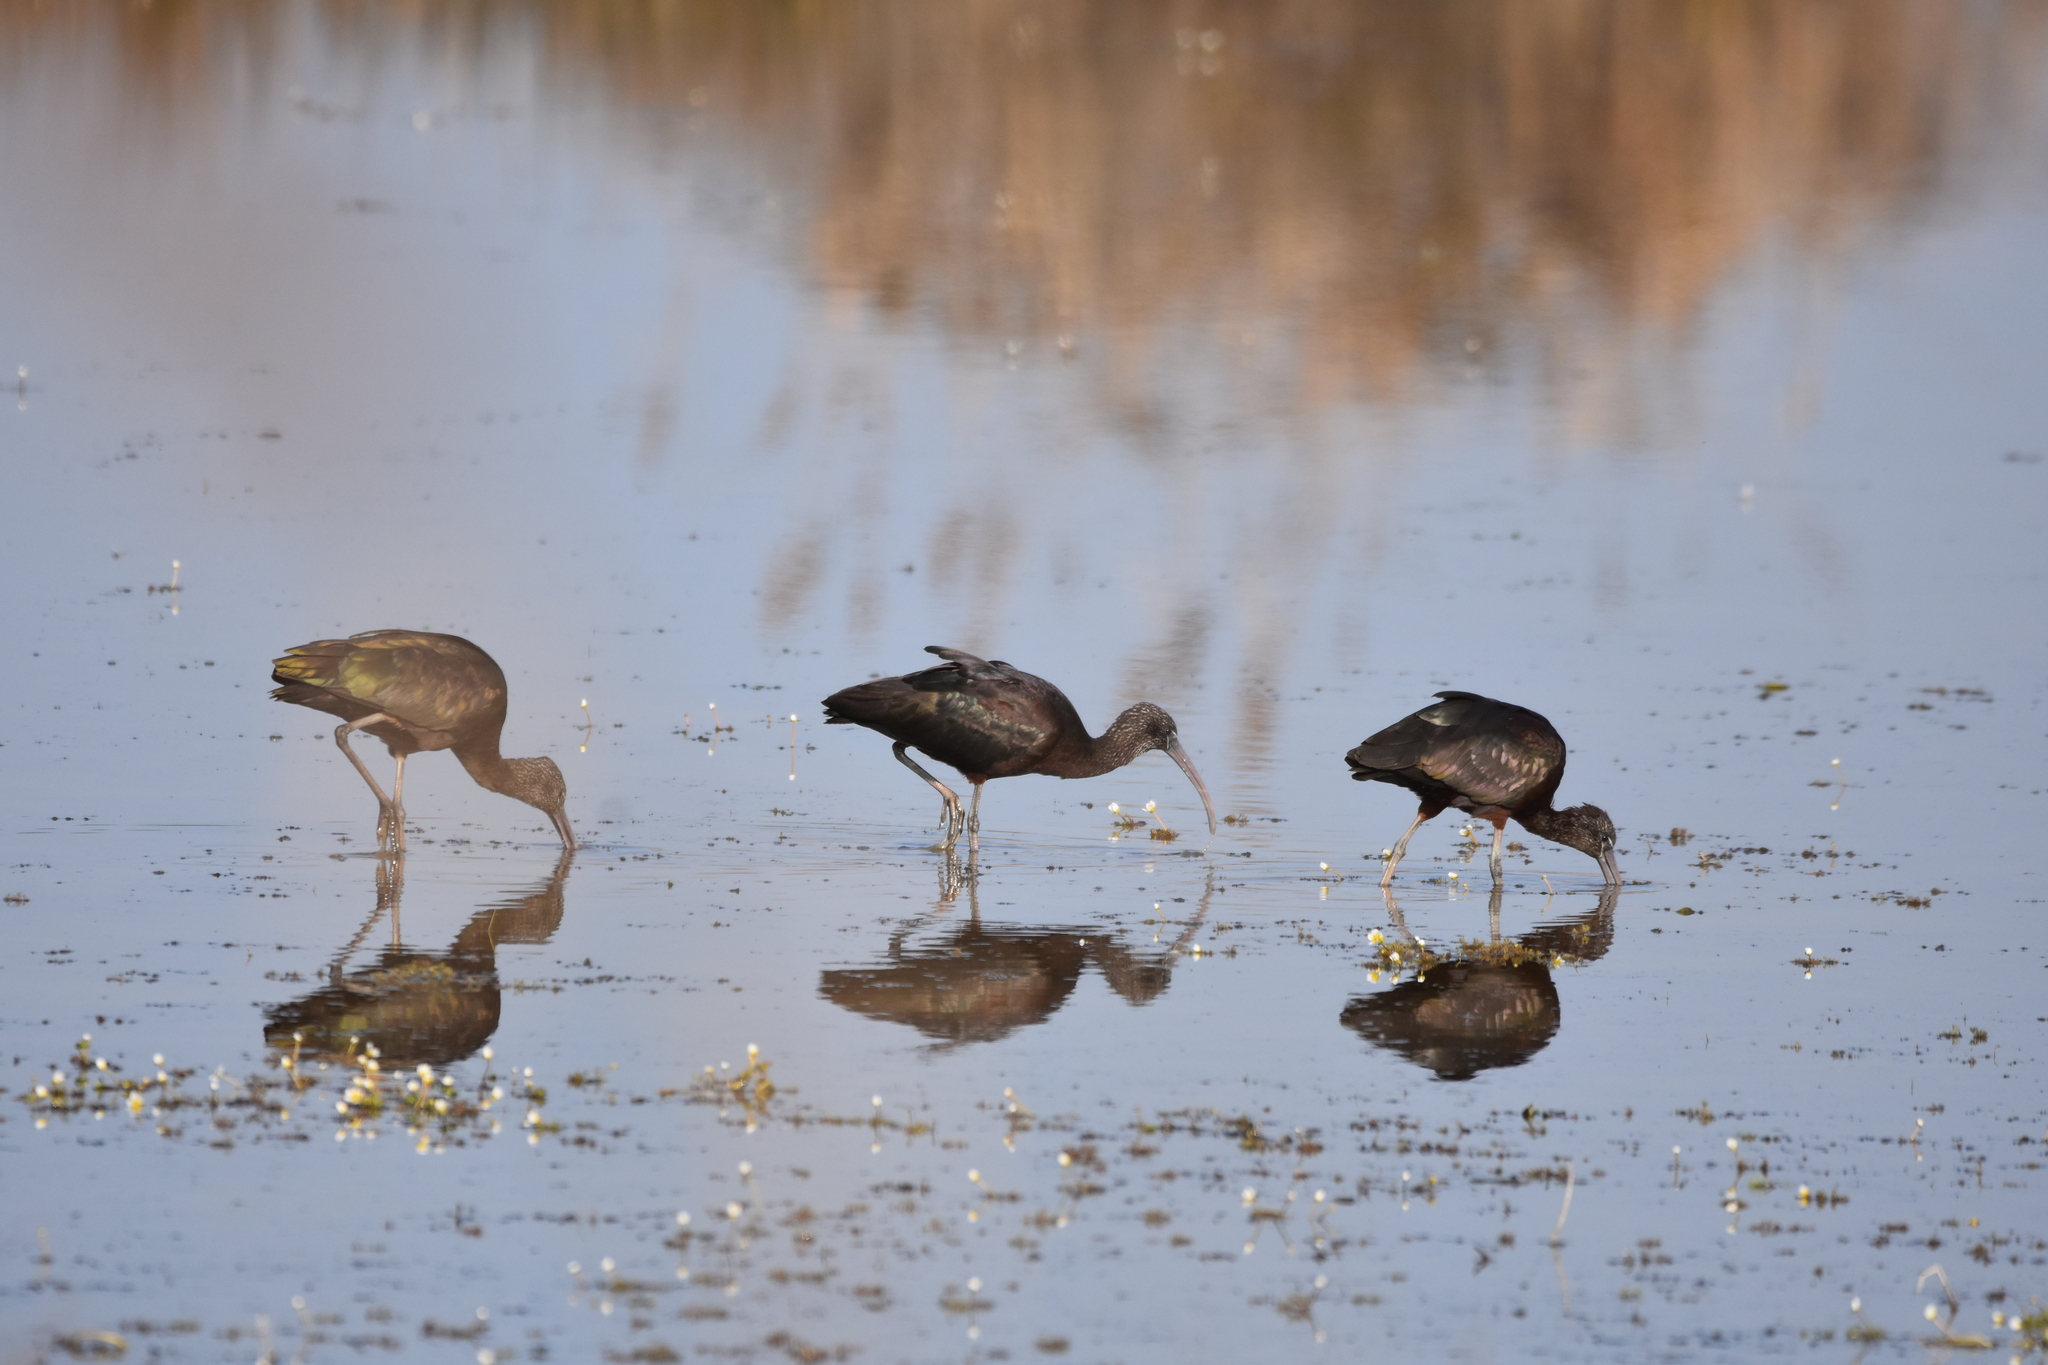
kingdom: Animalia
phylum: Chordata
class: Aves
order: Pelecaniformes
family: Threskiornithidae
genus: Plegadis
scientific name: Plegadis falcinellus
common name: Glossy ibis
